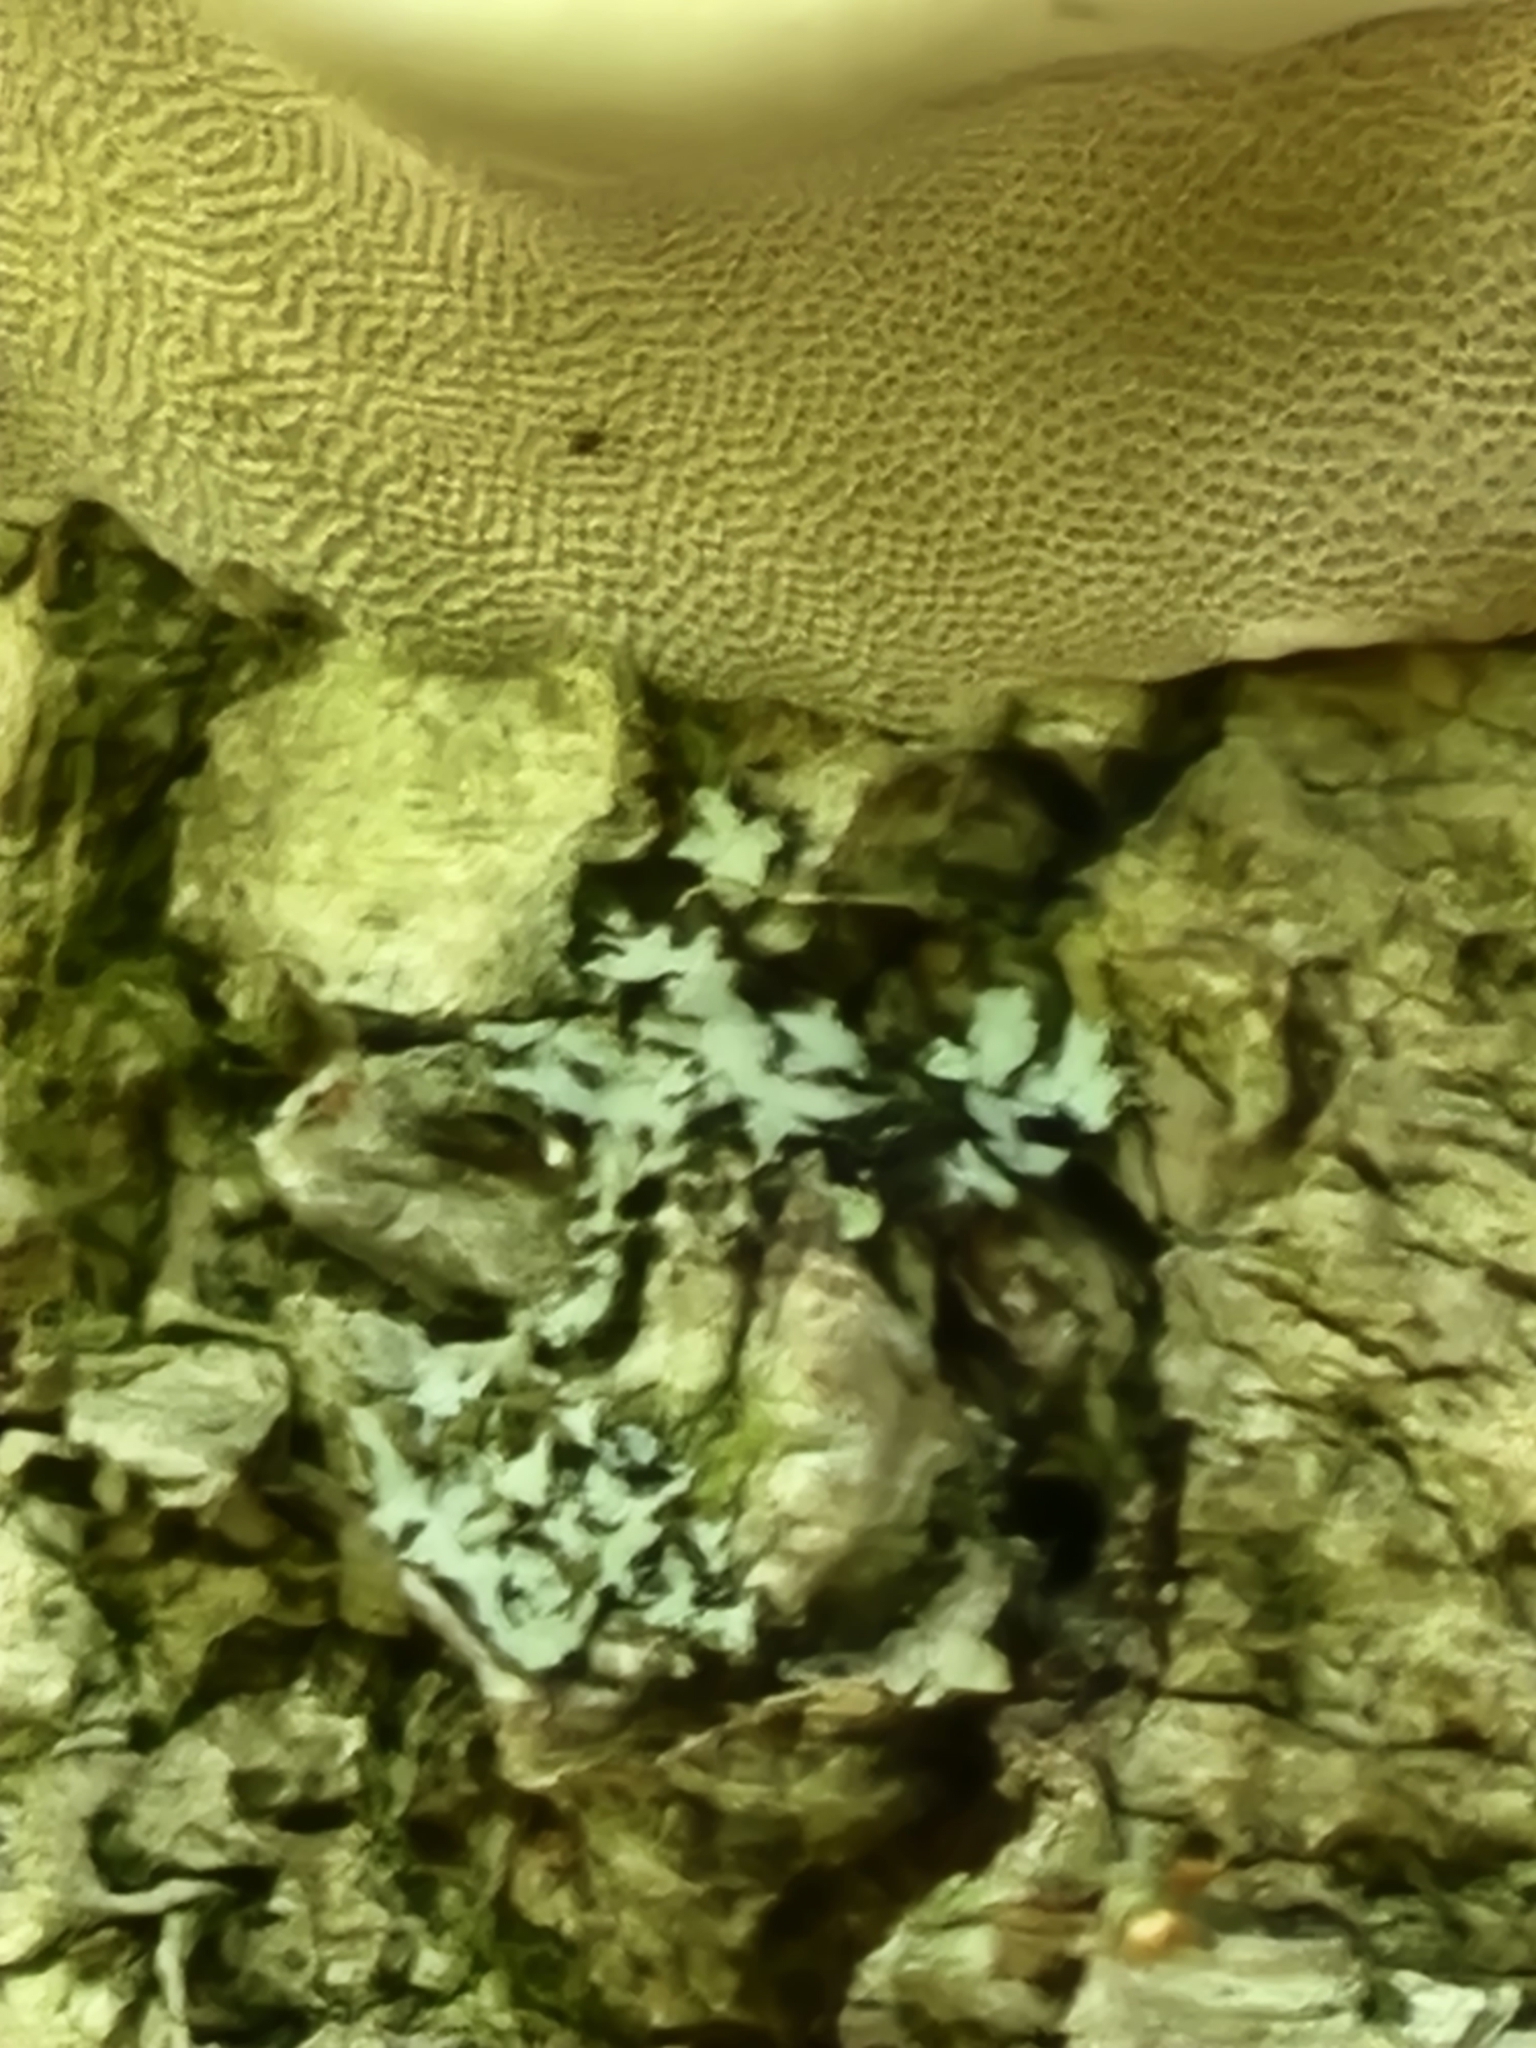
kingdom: Fungi
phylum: Basidiomycota
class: Agaricomycetes
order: Polyporales
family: Polyporaceae
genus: Fomes
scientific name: Fomes fomentarius
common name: Hoof fungus
